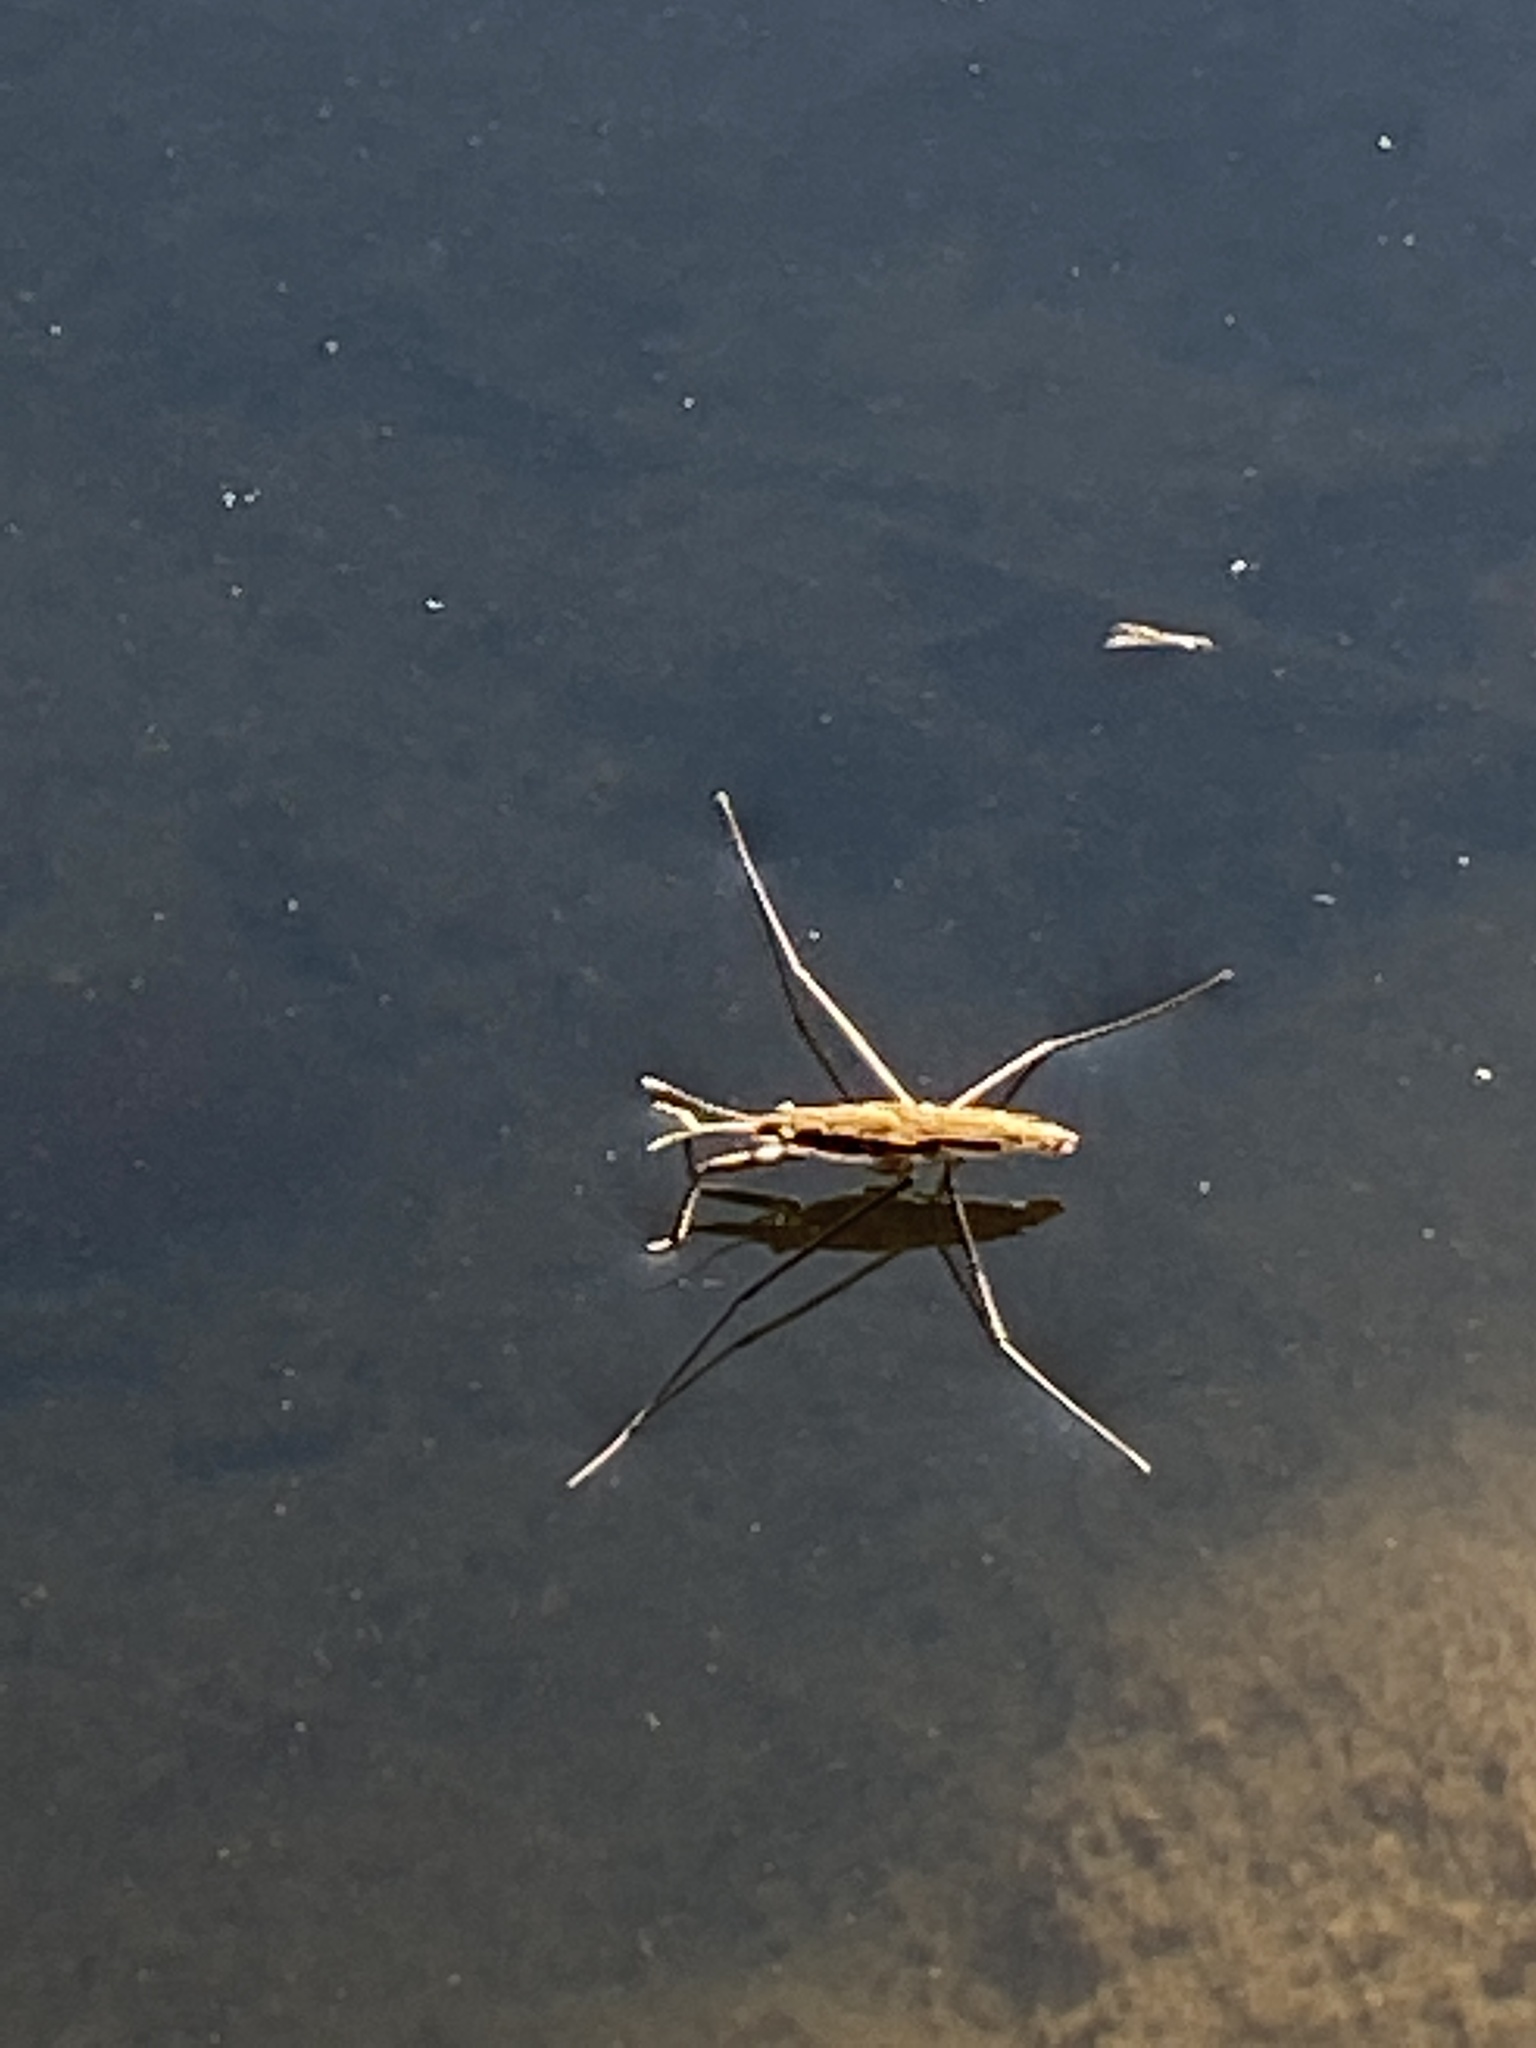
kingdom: Animalia
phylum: Arthropoda
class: Insecta
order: Hemiptera
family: Gerridae
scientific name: Gerridae
